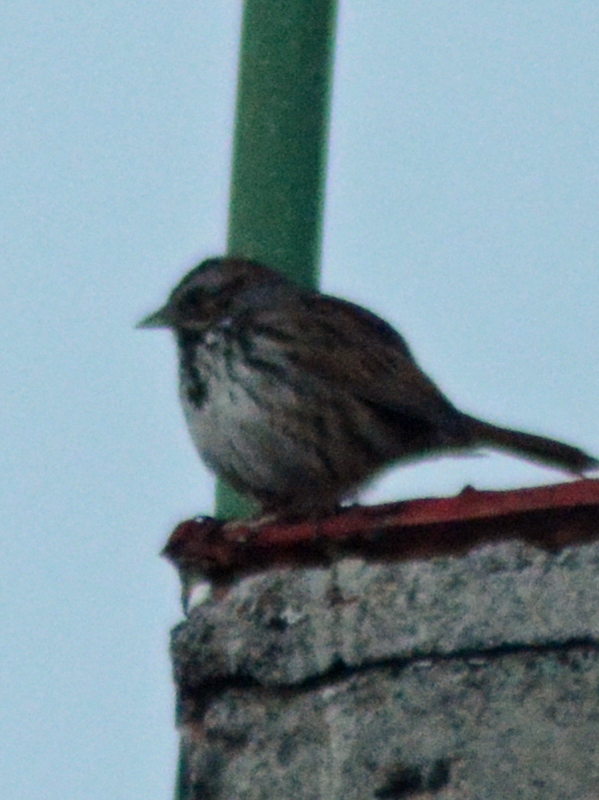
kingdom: Animalia
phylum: Chordata
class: Aves
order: Passeriformes
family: Passerellidae
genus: Melospiza
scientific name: Melospiza melodia
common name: Song sparrow
